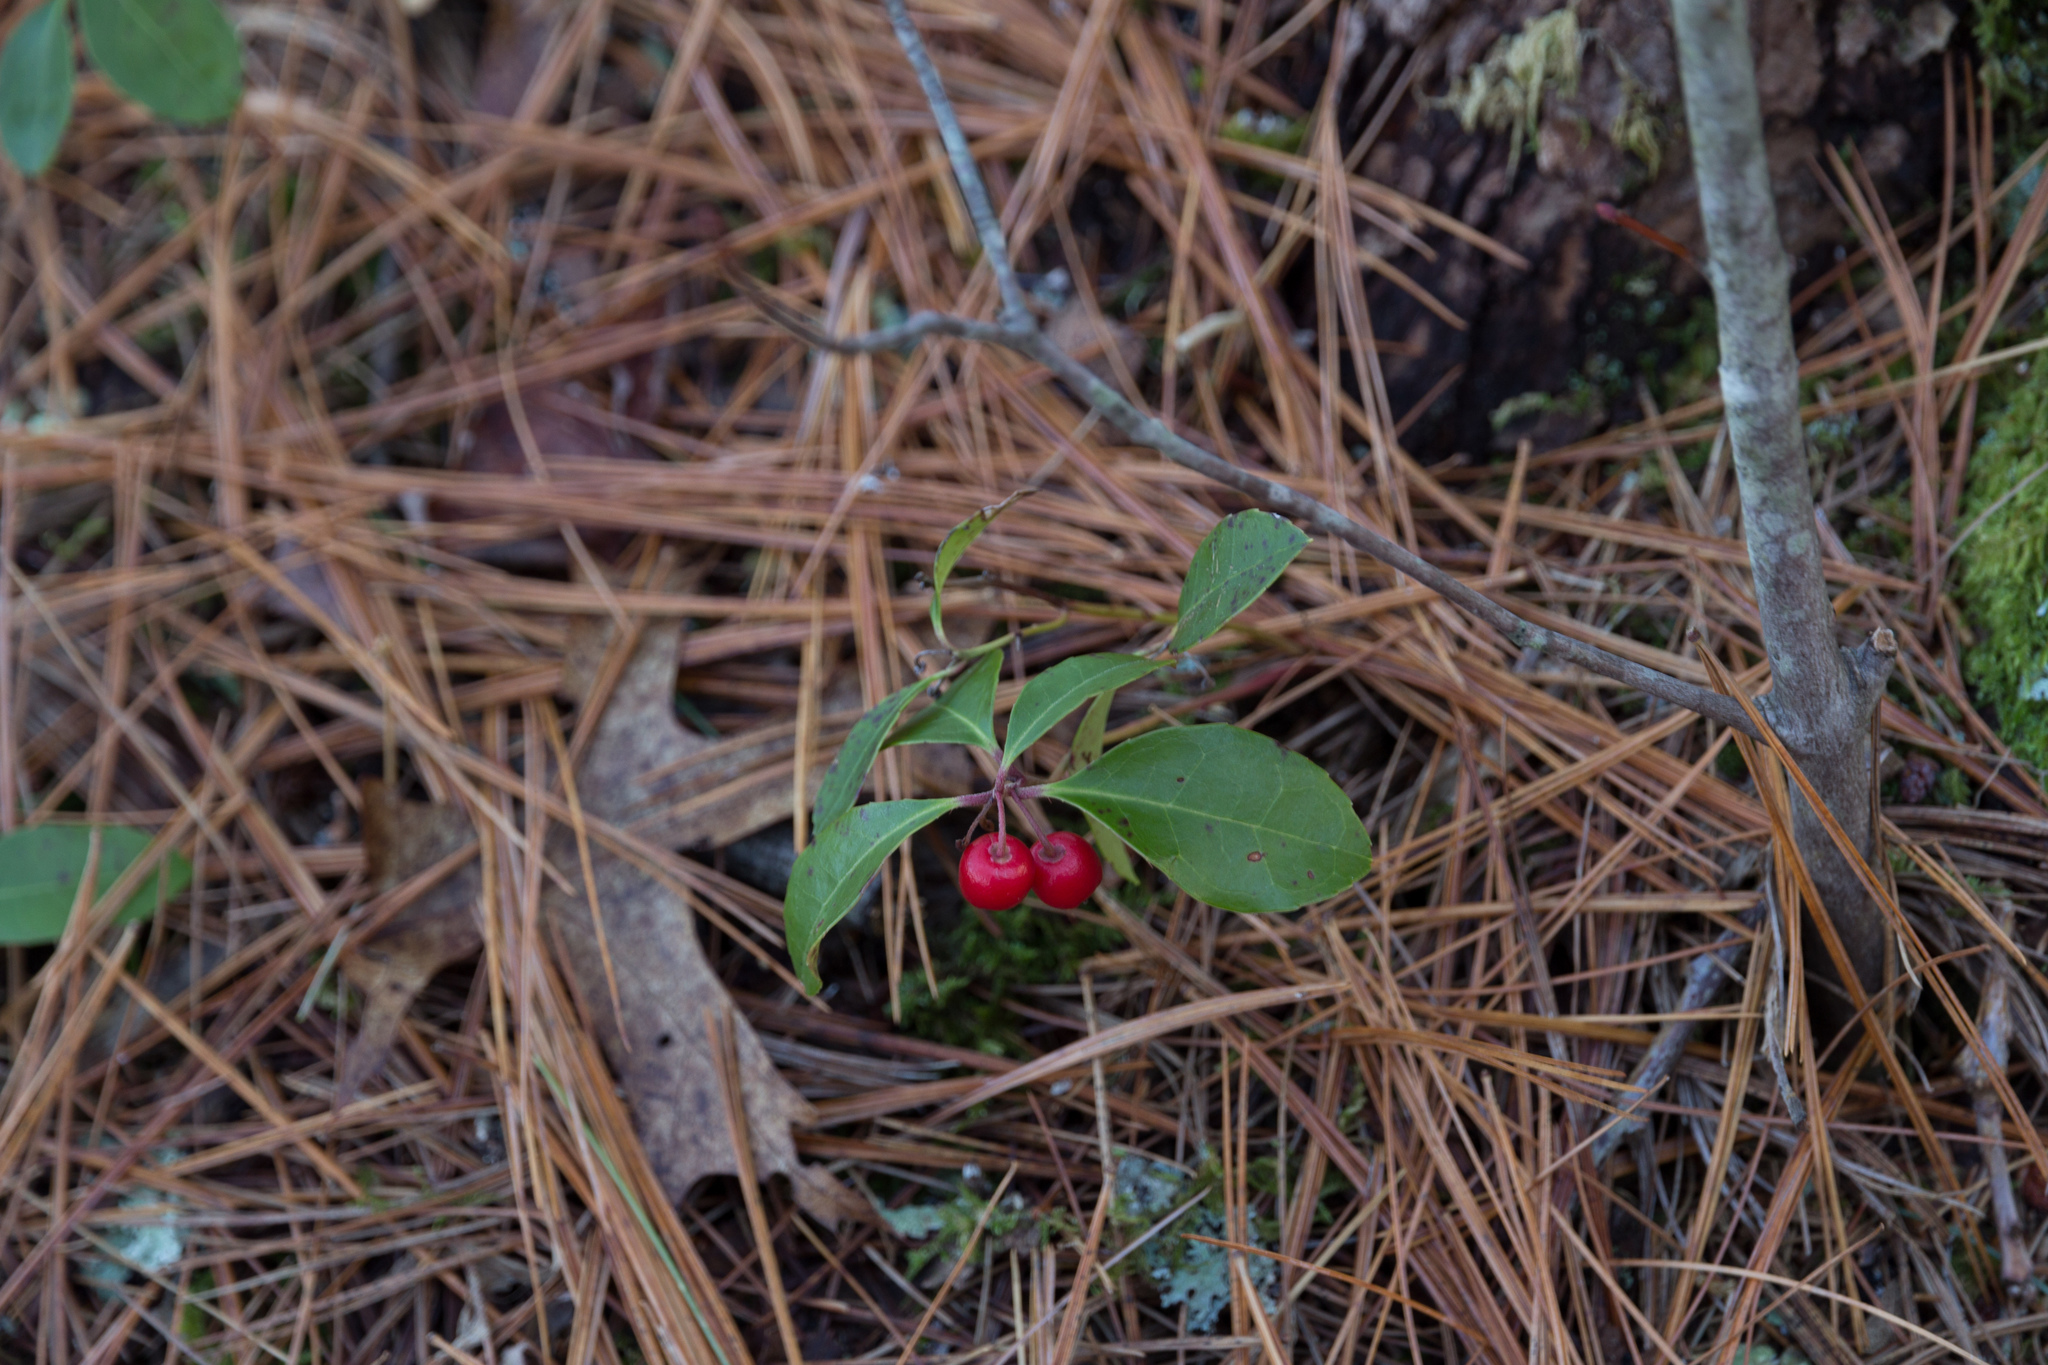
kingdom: Plantae
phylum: Tracheophyta
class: Magnoliopsida
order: Ericales
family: Ericaceae
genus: Gaultheria
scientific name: Gaultheria procumbens
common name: Checkerberry
